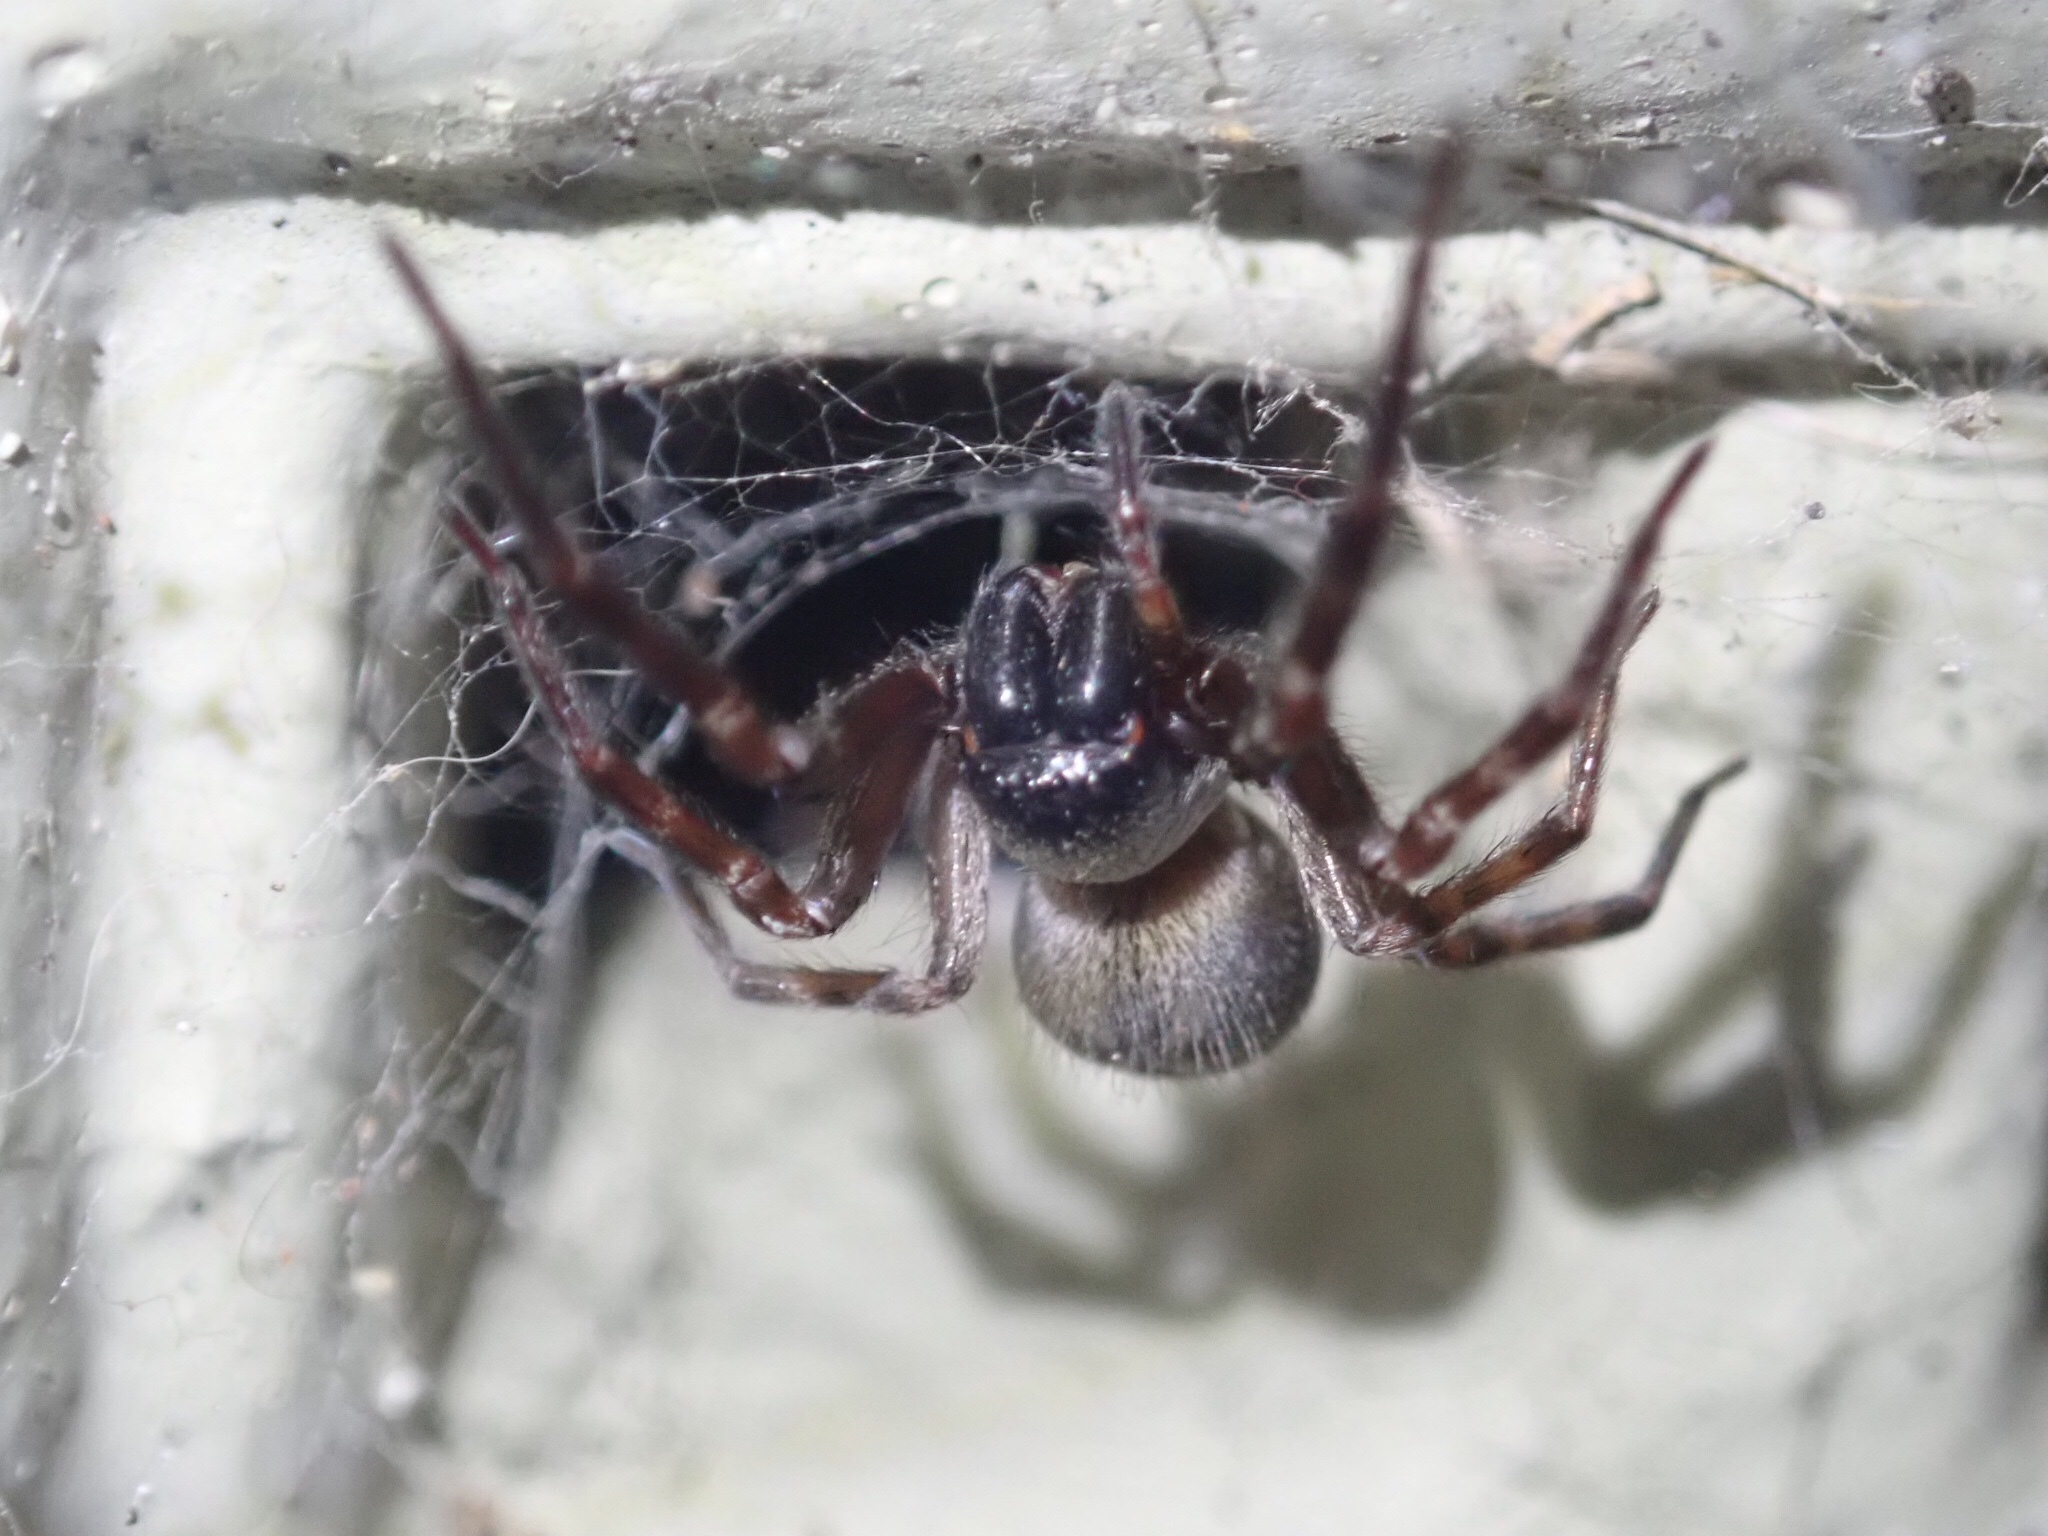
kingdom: Animalia
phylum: Arthropoda
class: Arachnida
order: Araneae
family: Desidae
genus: Badumna
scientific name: Badumna longinqua
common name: Gray house spider
